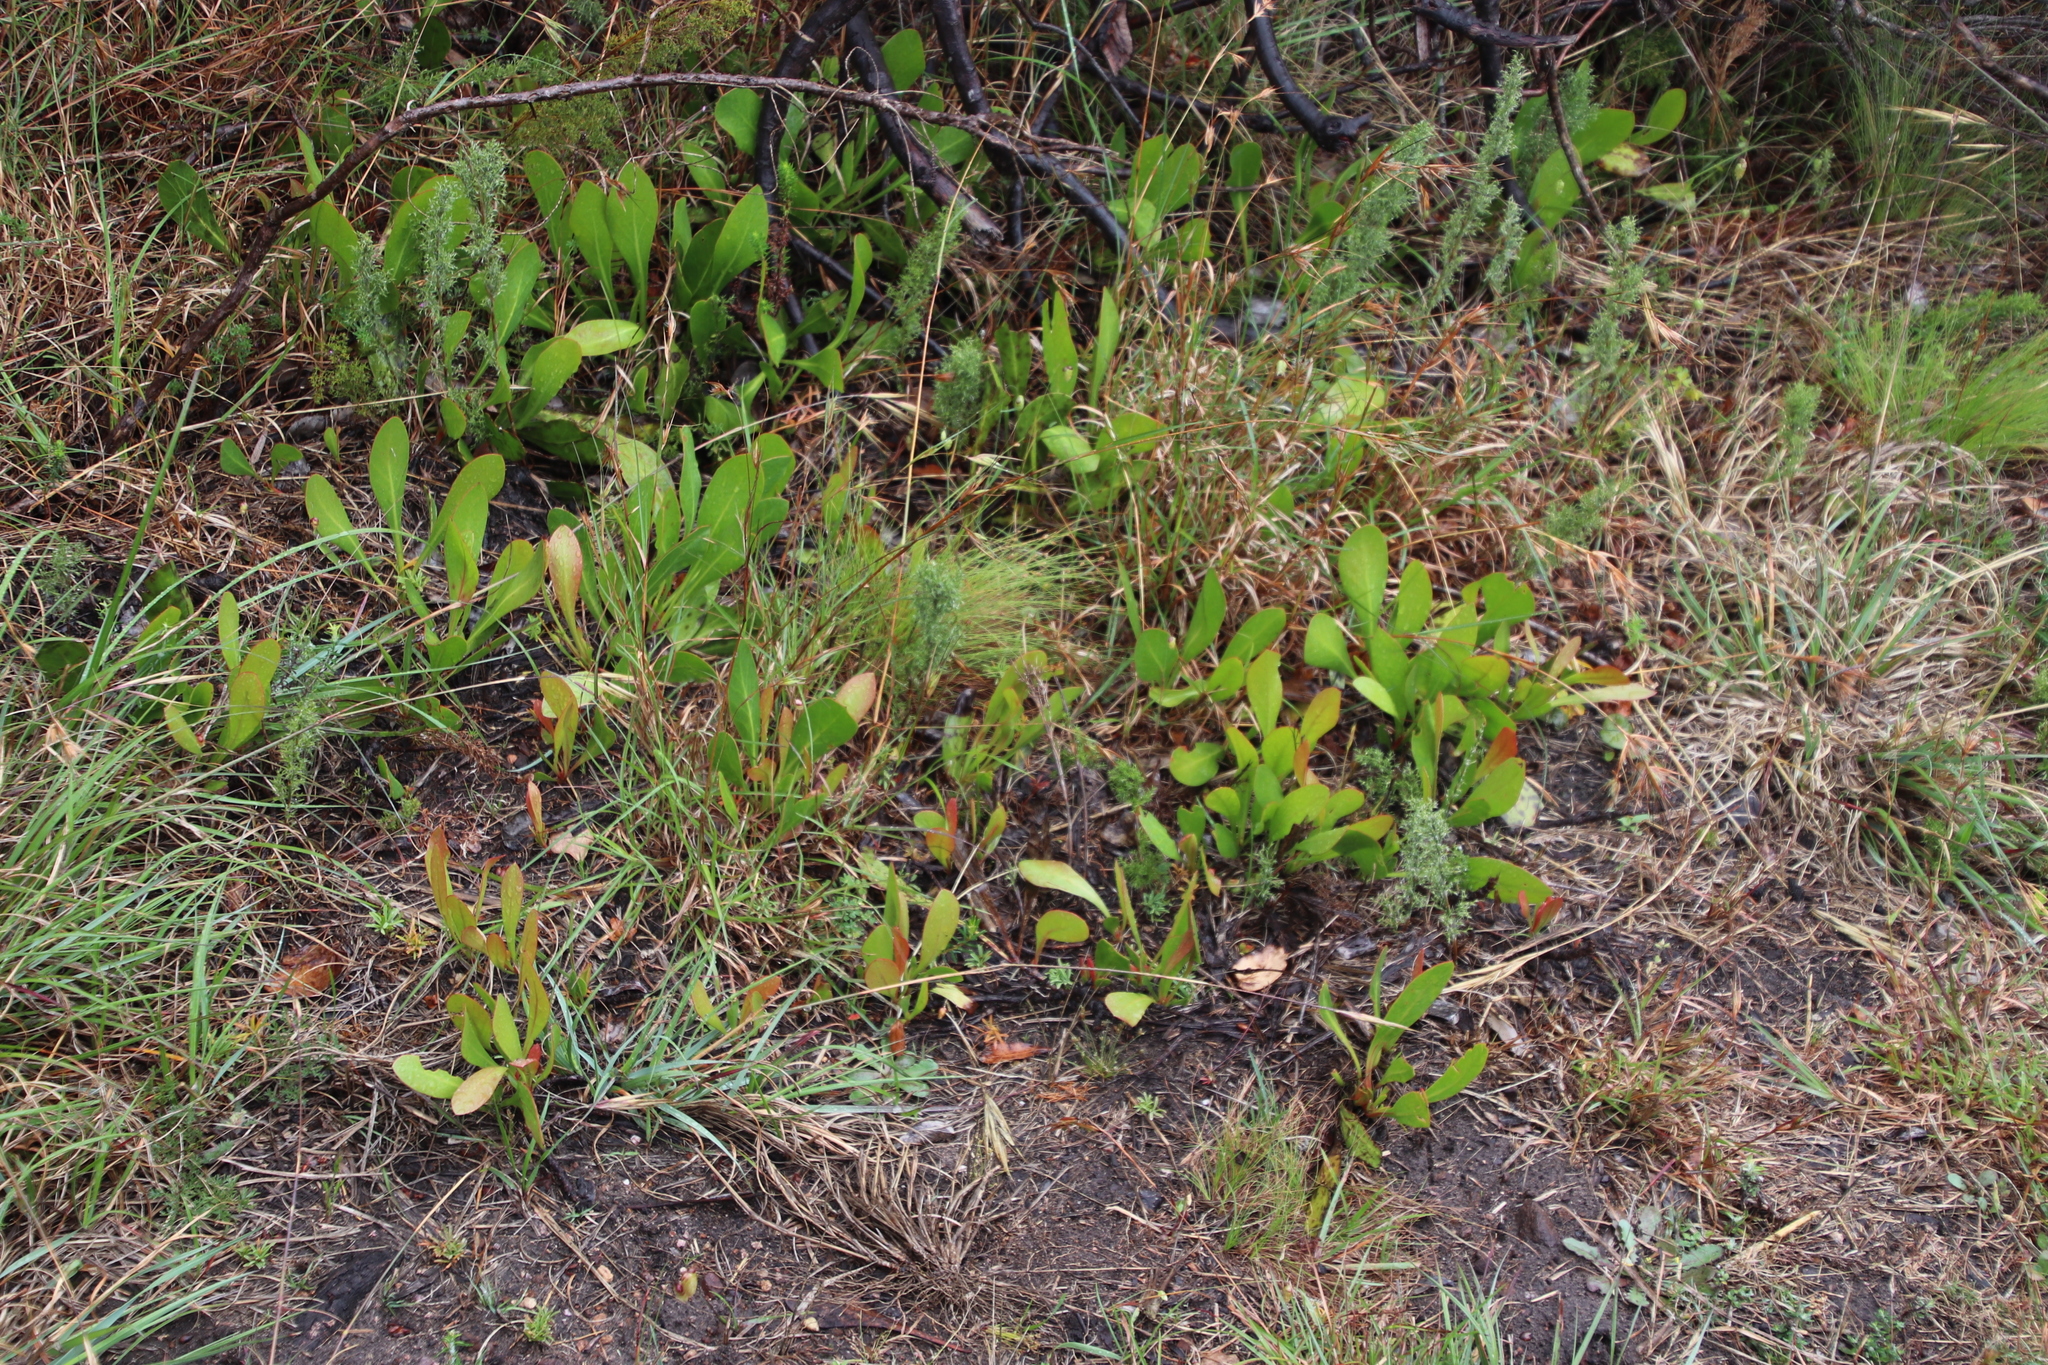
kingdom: Plantae
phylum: Tracheophyta
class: Magnoliopsida
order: Proteales
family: Proteaceae
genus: Protea
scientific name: Protea acaulos
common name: Common ground sugarbush
